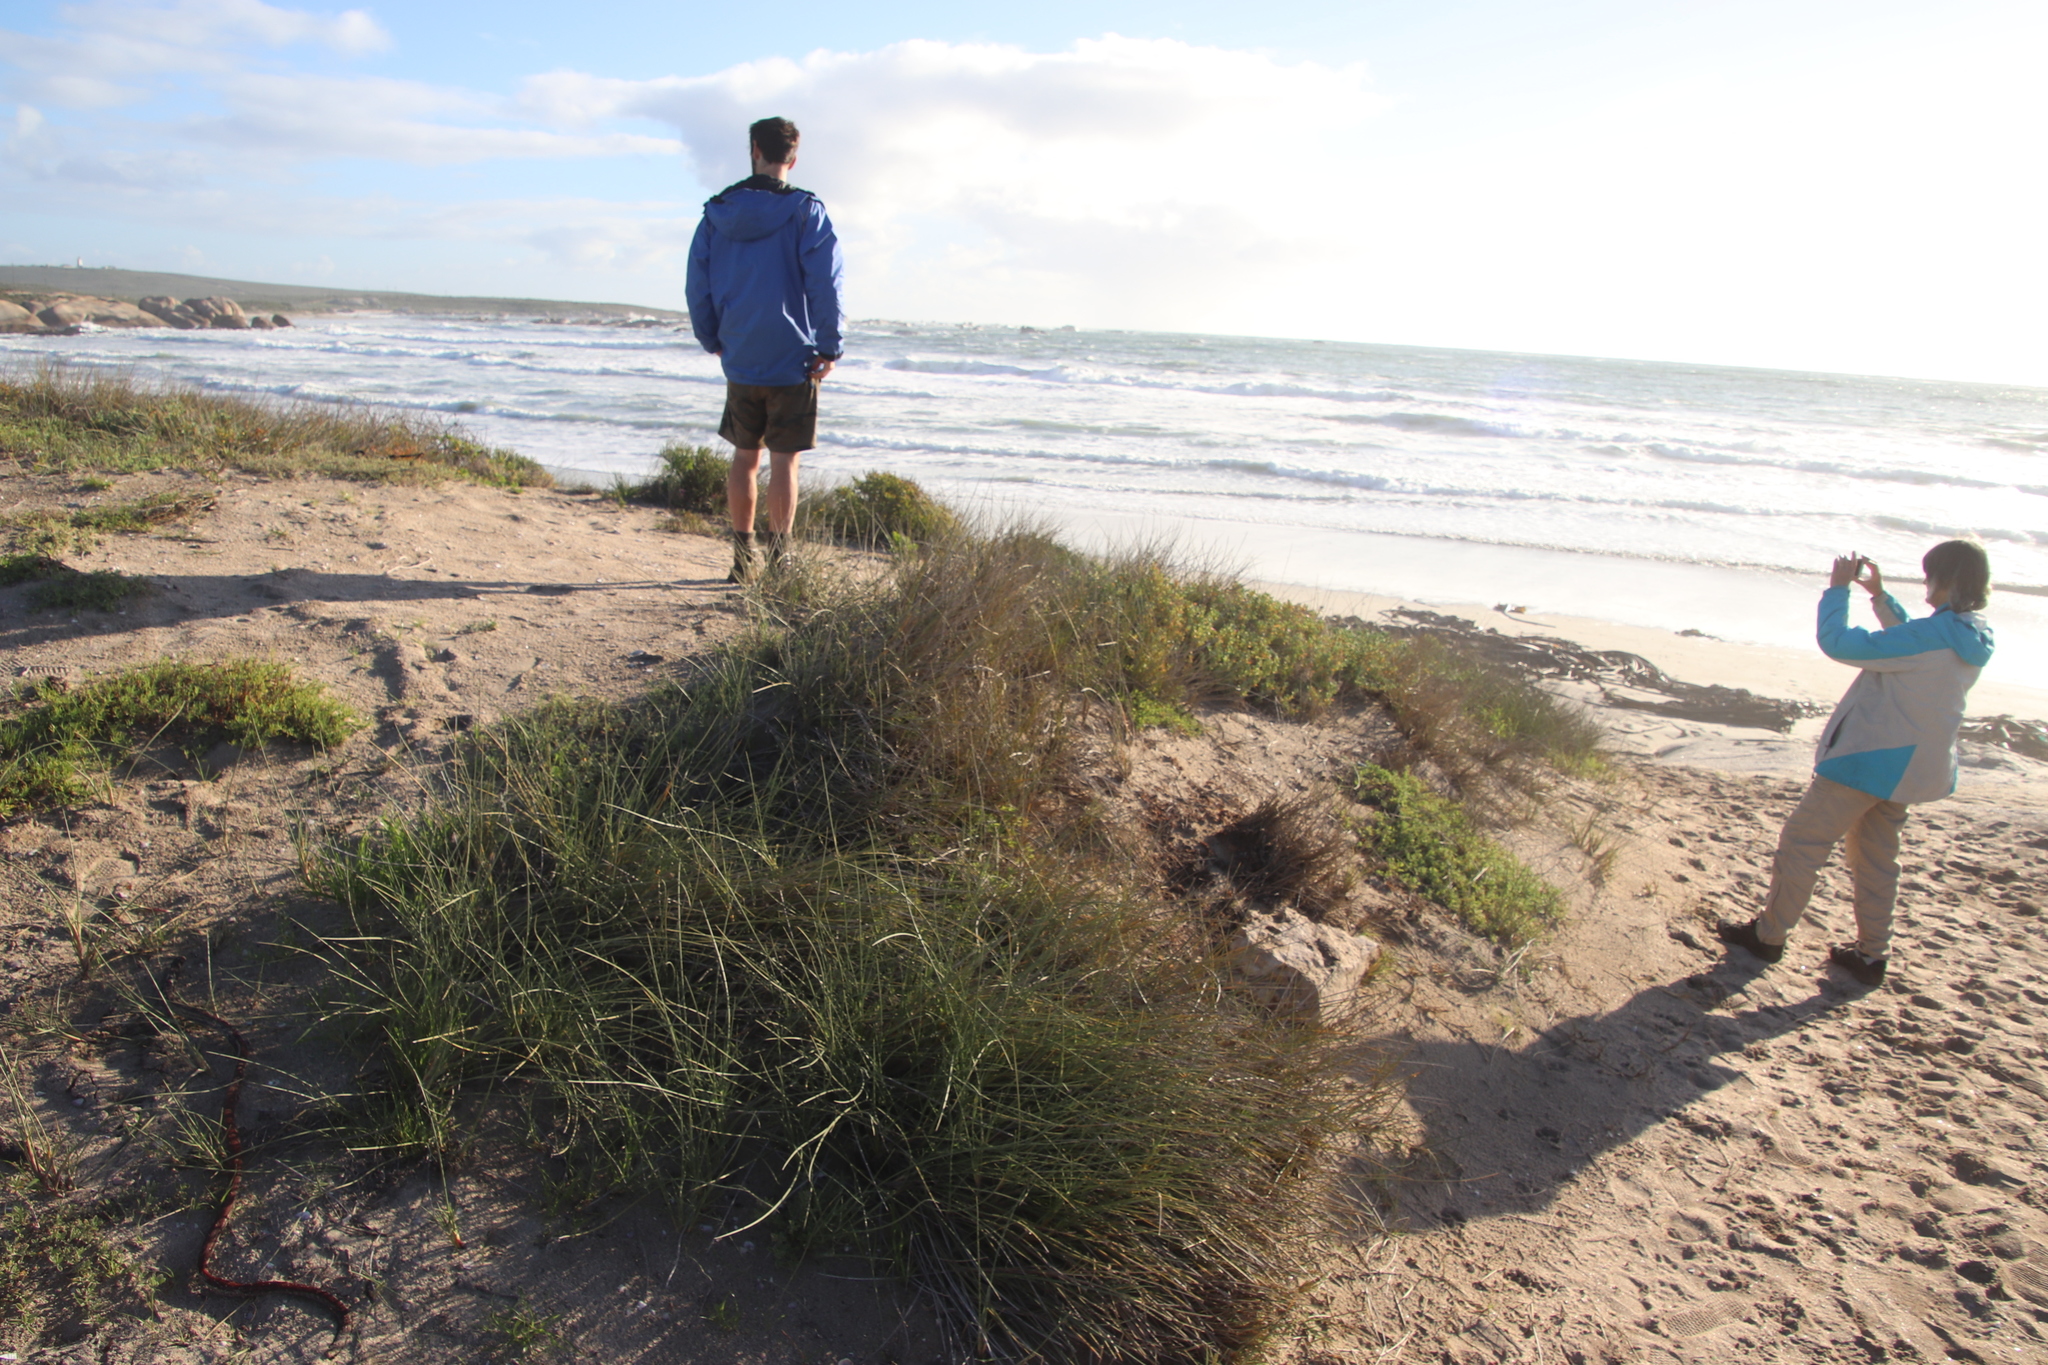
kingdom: Plantae
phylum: Tracheophyta
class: Liliopsida
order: Poales
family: Poaceae
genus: Cladoraphis
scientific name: Cladoraphis cyperoides
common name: Bristly lovegrass
